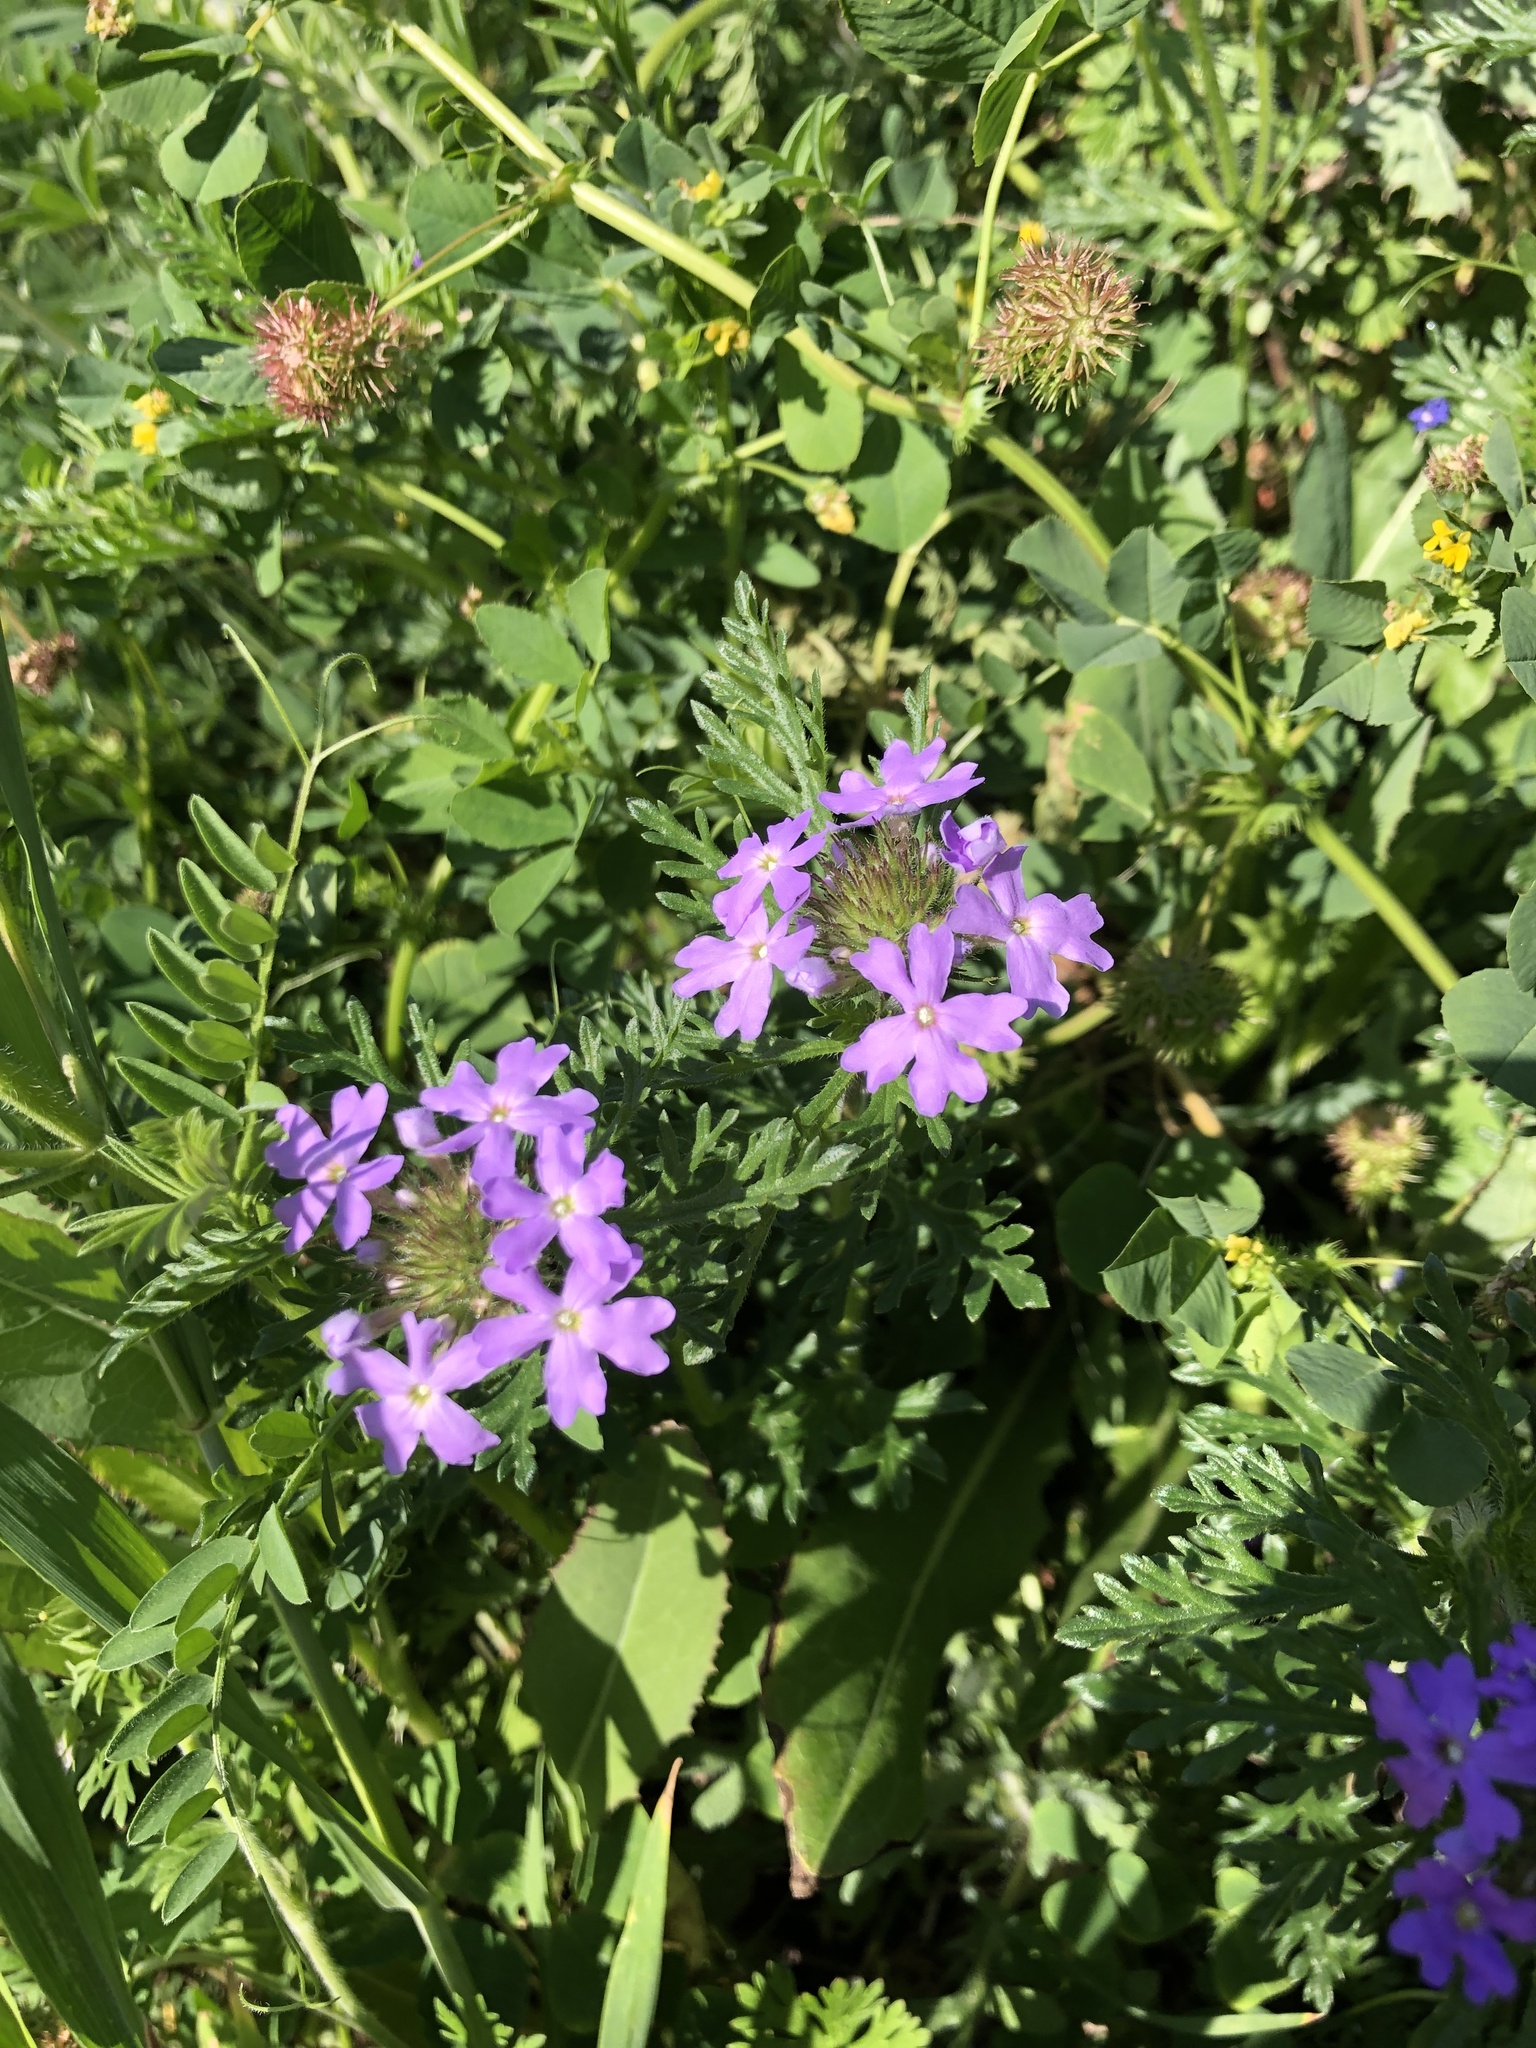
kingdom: Plantae
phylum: Tracheophyta
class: Magnoliopsida
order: Lamiales
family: Verbenaceae
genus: Verbena
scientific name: Verbena bipinnatifida
